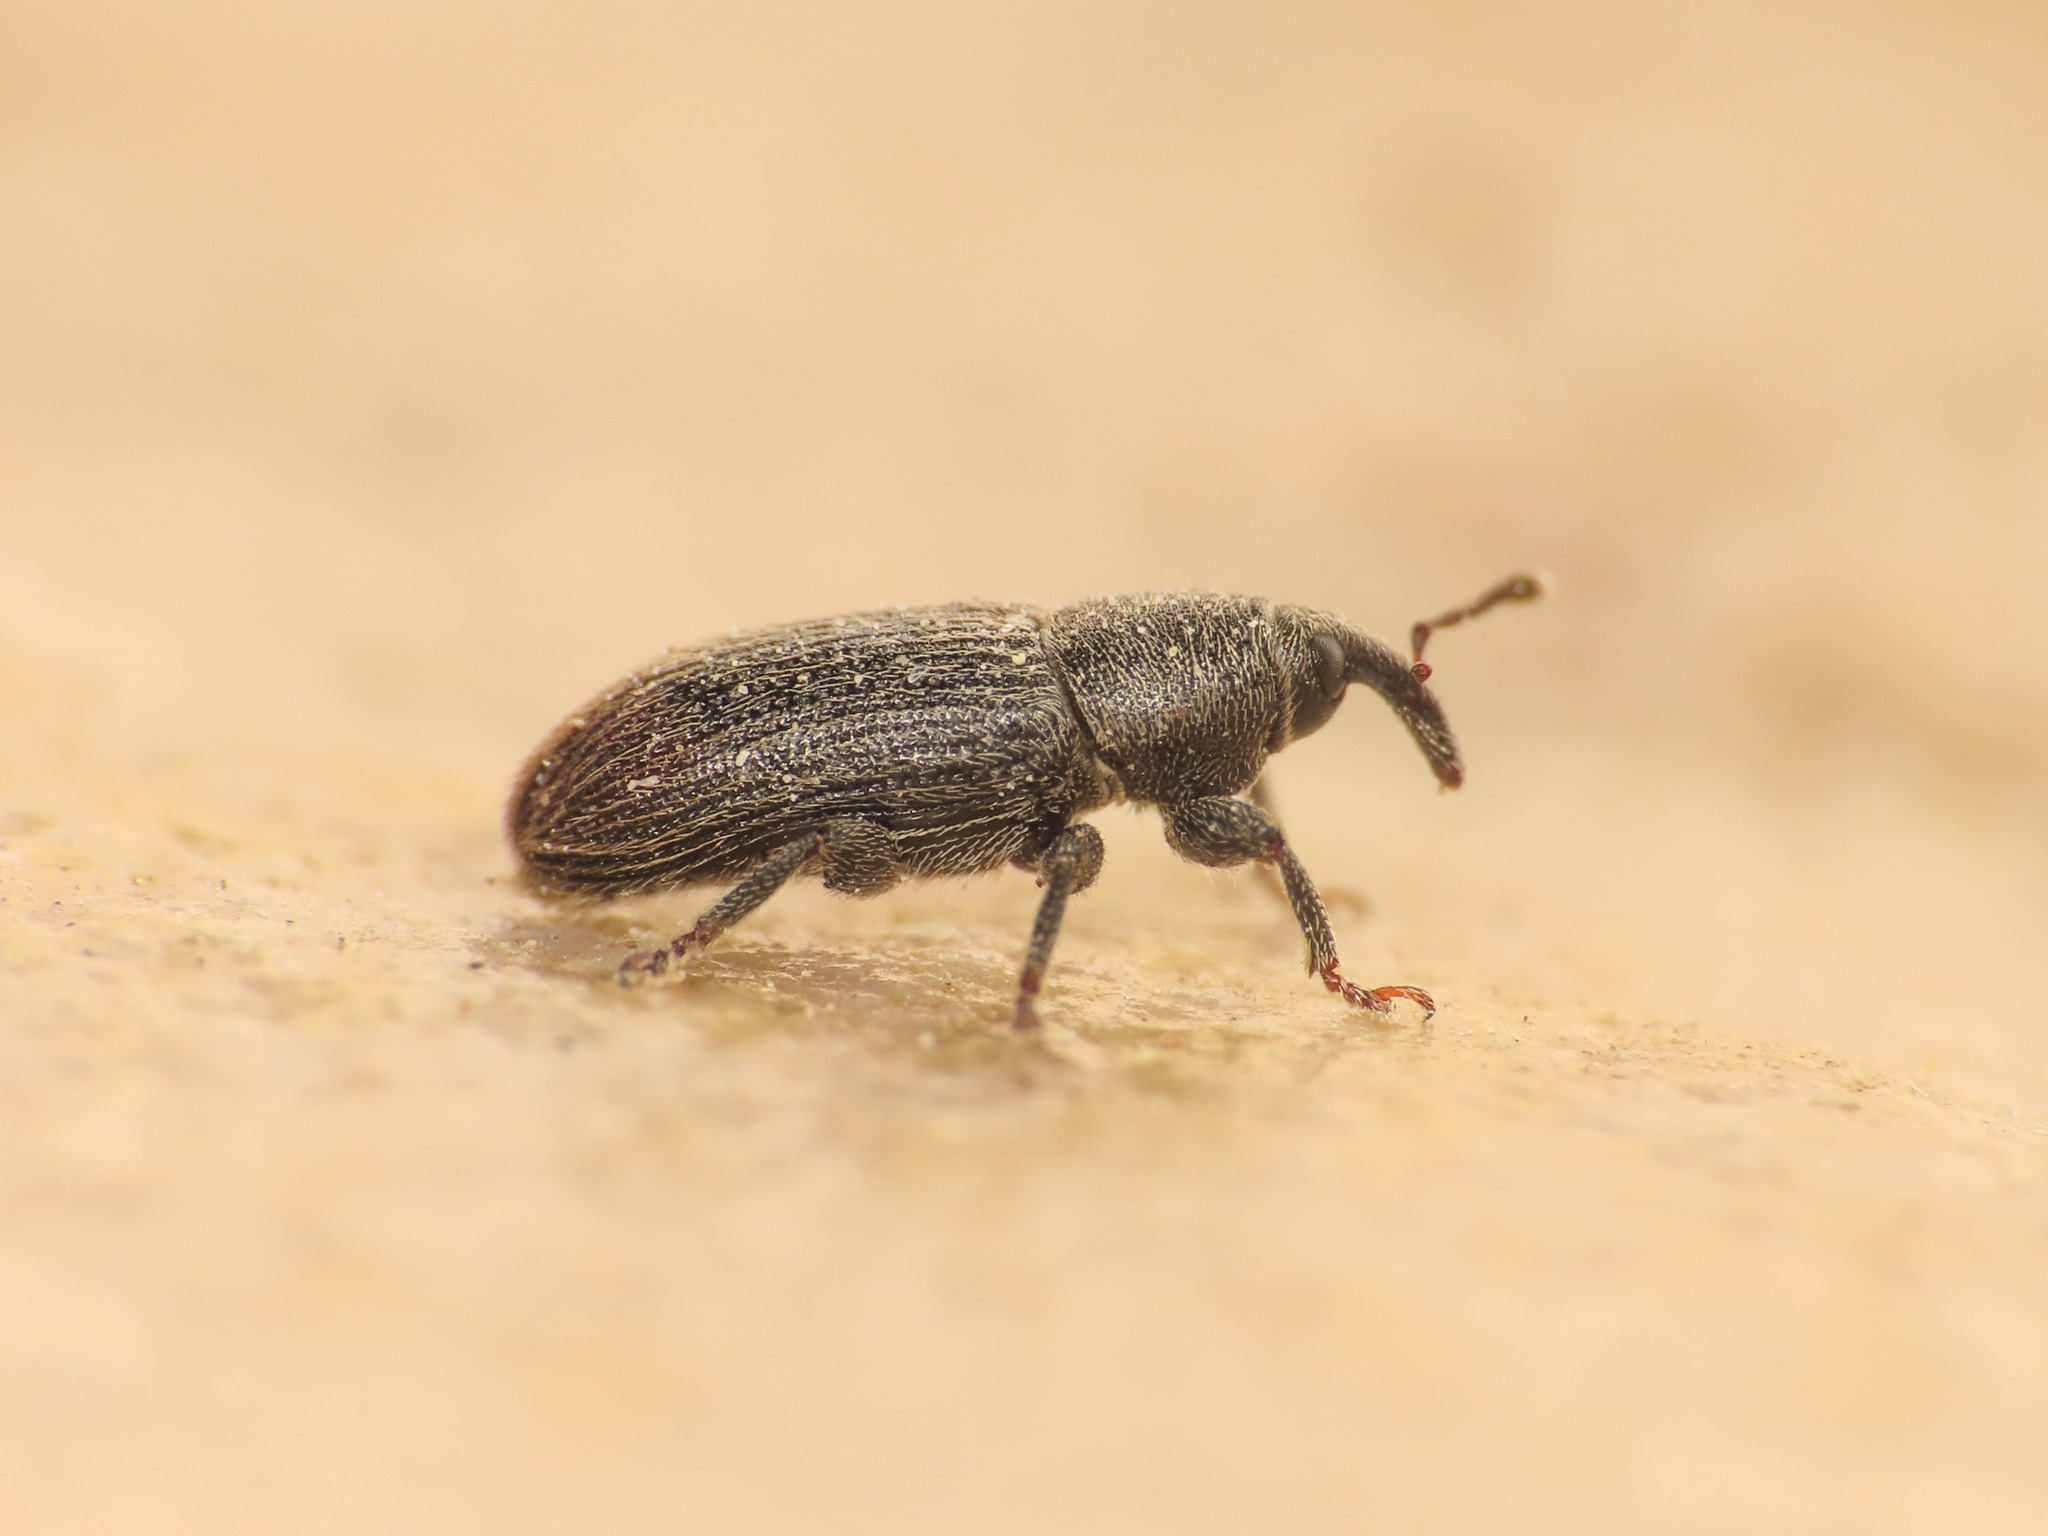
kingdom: Animalia
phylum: Arthropoda
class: Insecta
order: Coleoptera
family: Curculionidae
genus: Mecinus
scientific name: Mecinus pyraster
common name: Weevil
